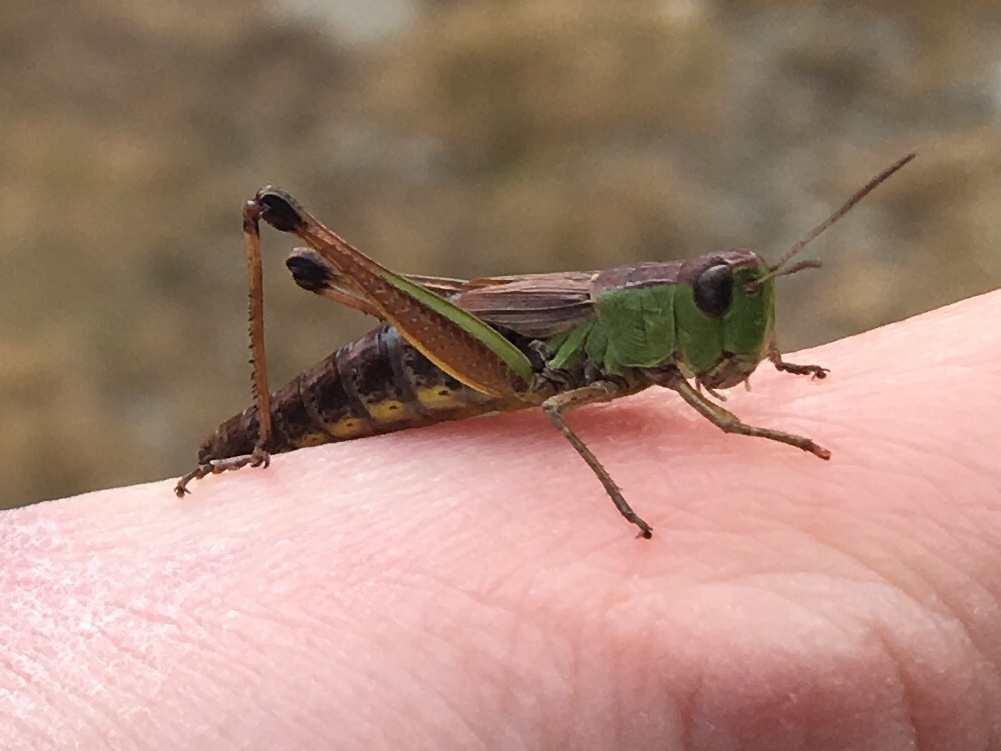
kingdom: Animalia
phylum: Arthropoda
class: Insecta
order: Orthoptera
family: Acrididae
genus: Pseudochorthippus
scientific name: Pseudochorthippus parallelus
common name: Meadow grasshopper
